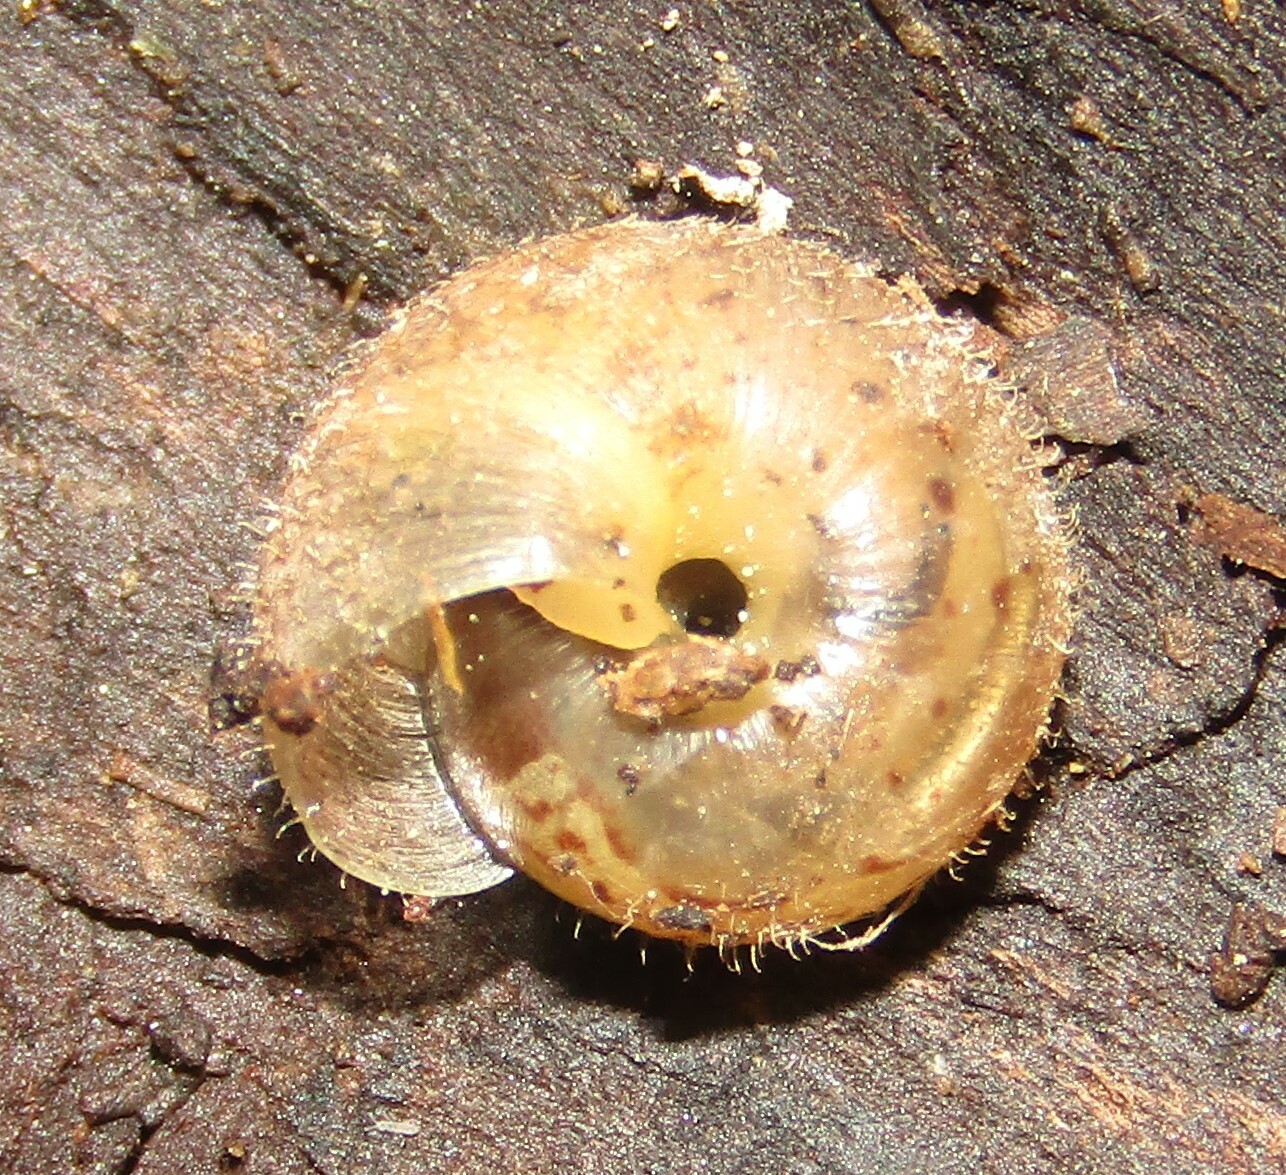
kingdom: Animalia
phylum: Mollusca
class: Gastropoda
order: Stylommatophora
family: Hygromiidae
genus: Euomphalia
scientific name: Euomphalia strigella
